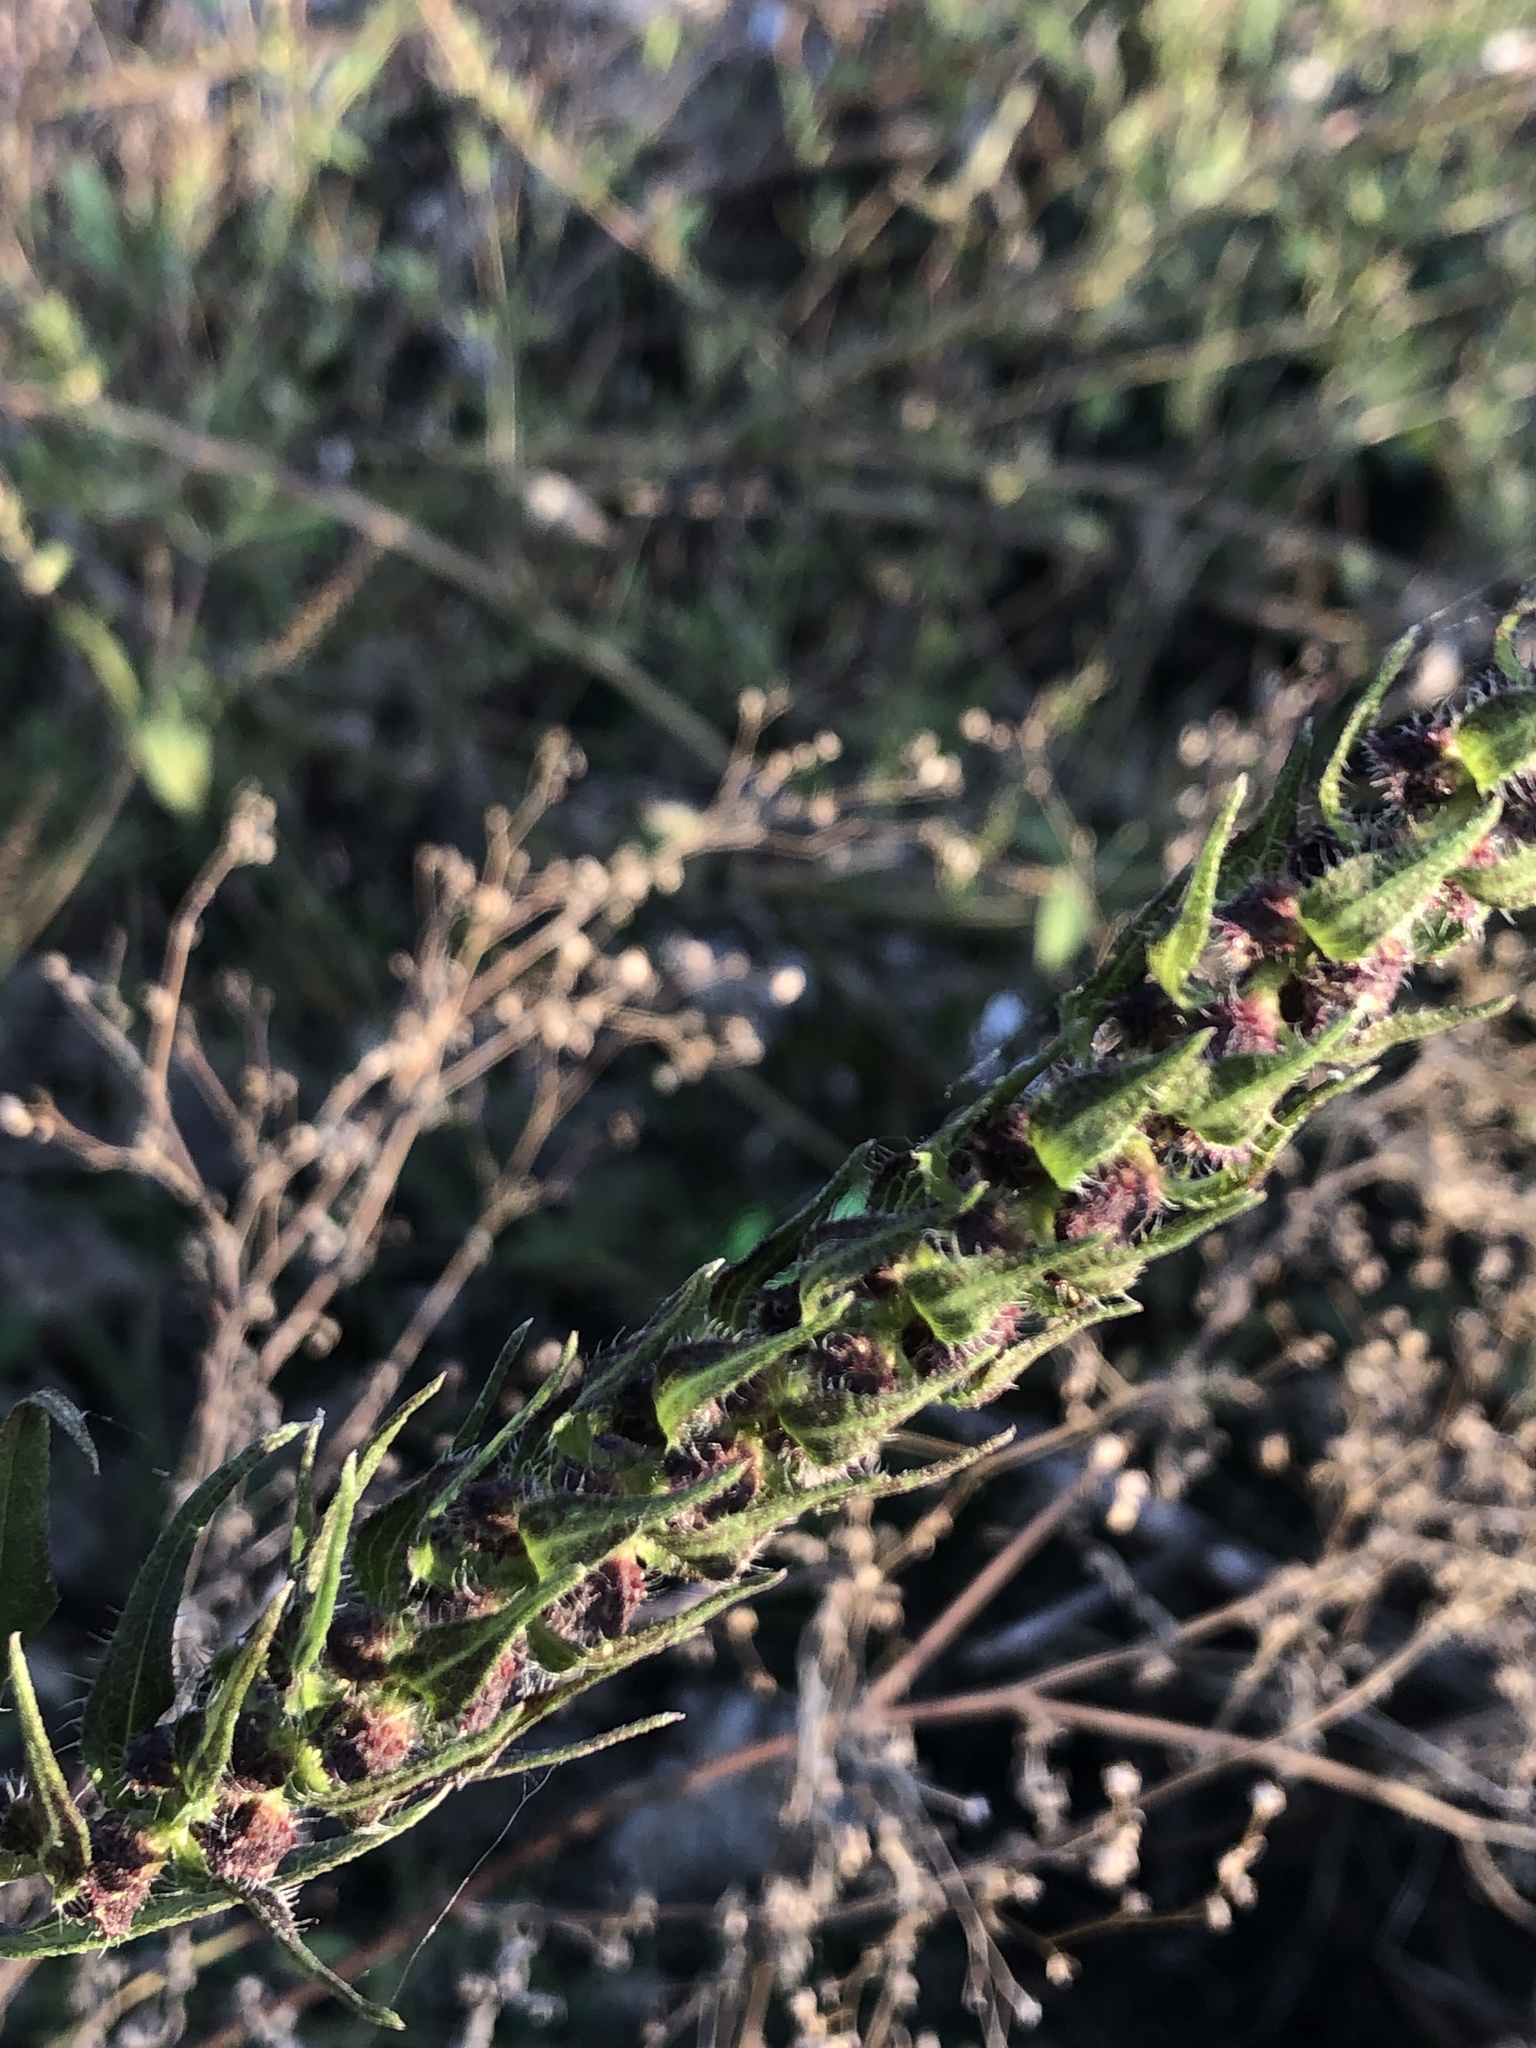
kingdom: Plantae
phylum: Tracheophyta
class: Magnoliopsida
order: Asterales
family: Asteraceae
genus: Iva
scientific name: Iva annua
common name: Marsh-elder
